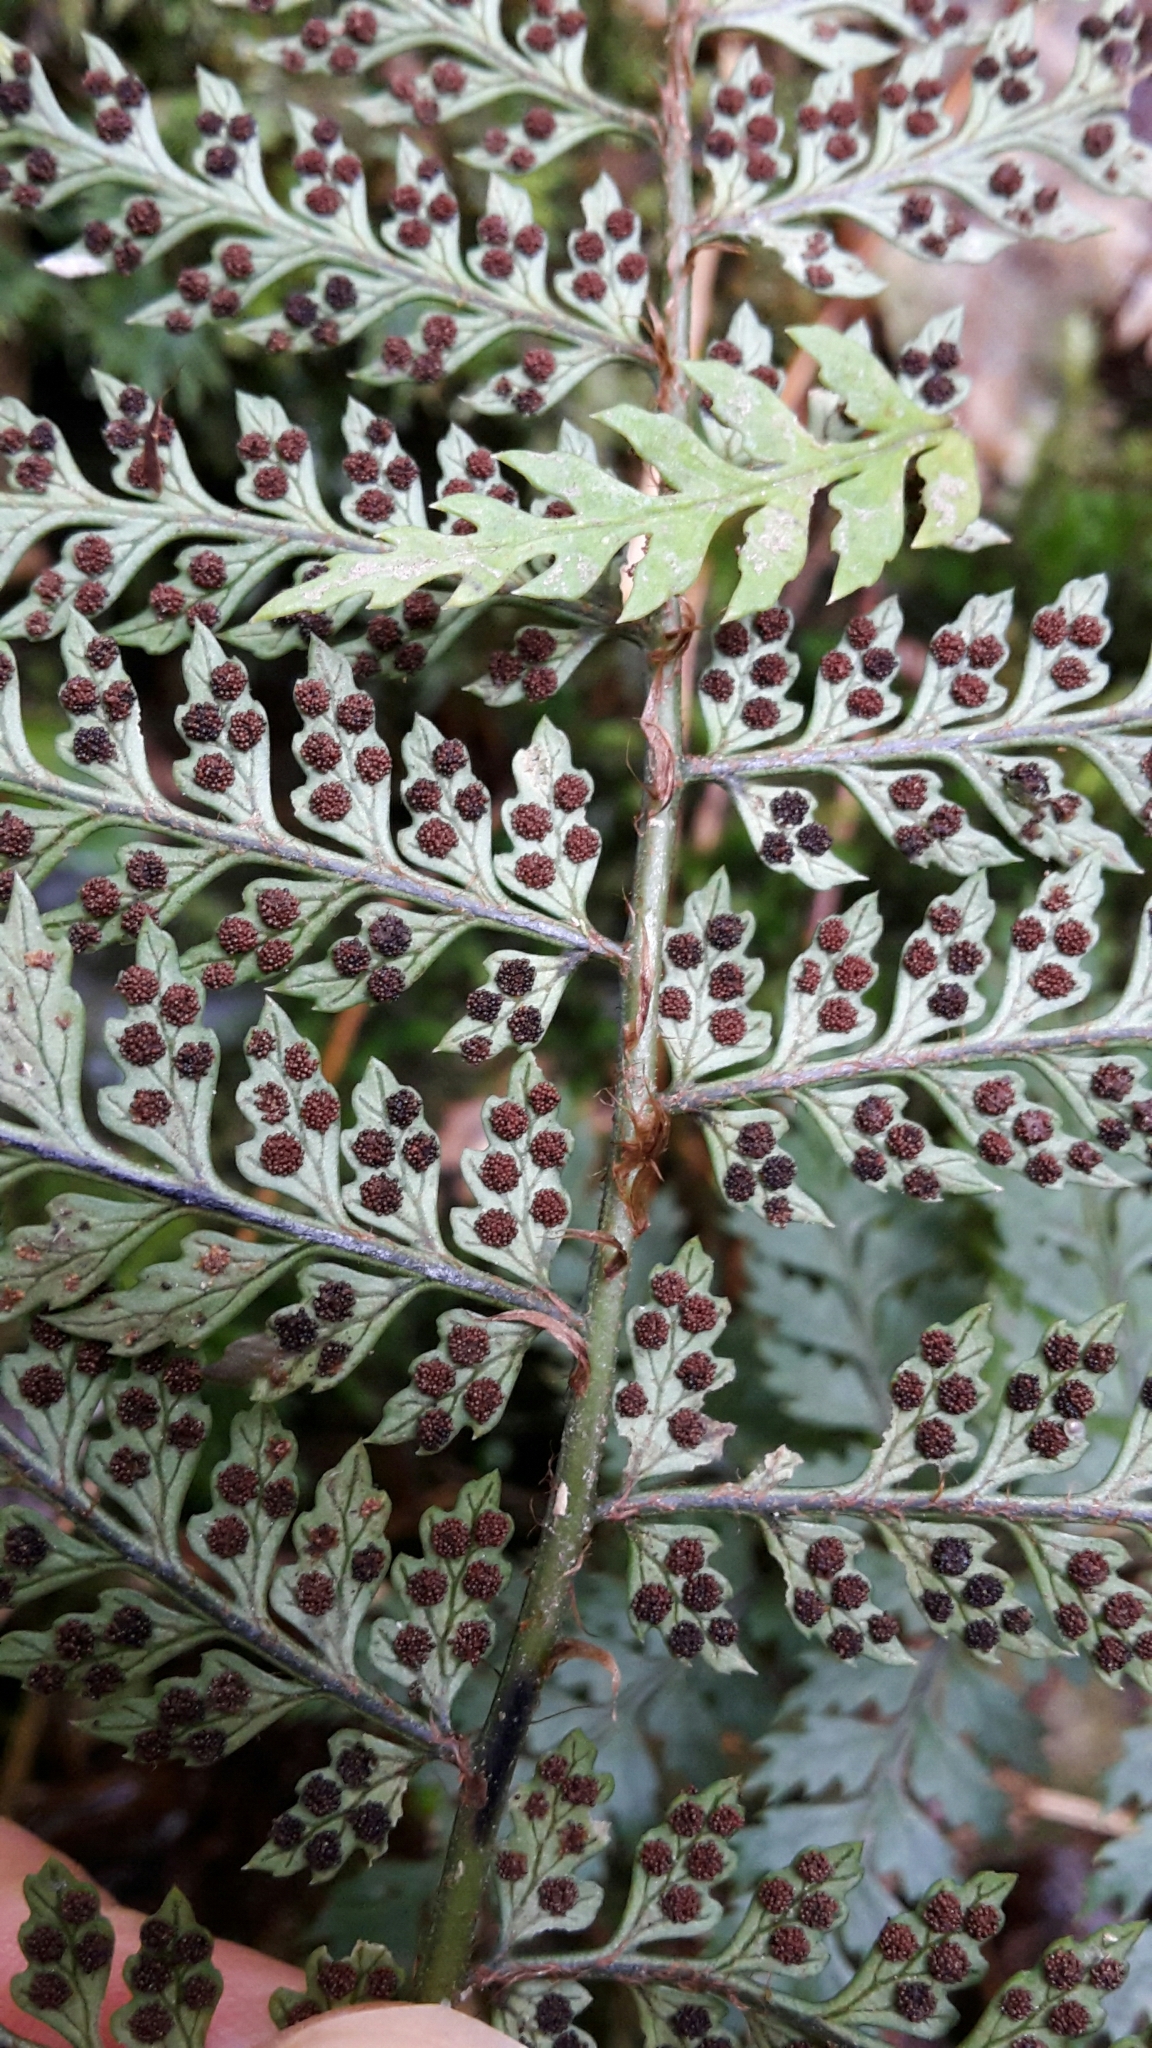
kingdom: Plantae
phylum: Tracheophyta
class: Polypodiopsida
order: Polypodiales
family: Dryopteridaceae
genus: Polystichum
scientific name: Polystichum silvaticum
